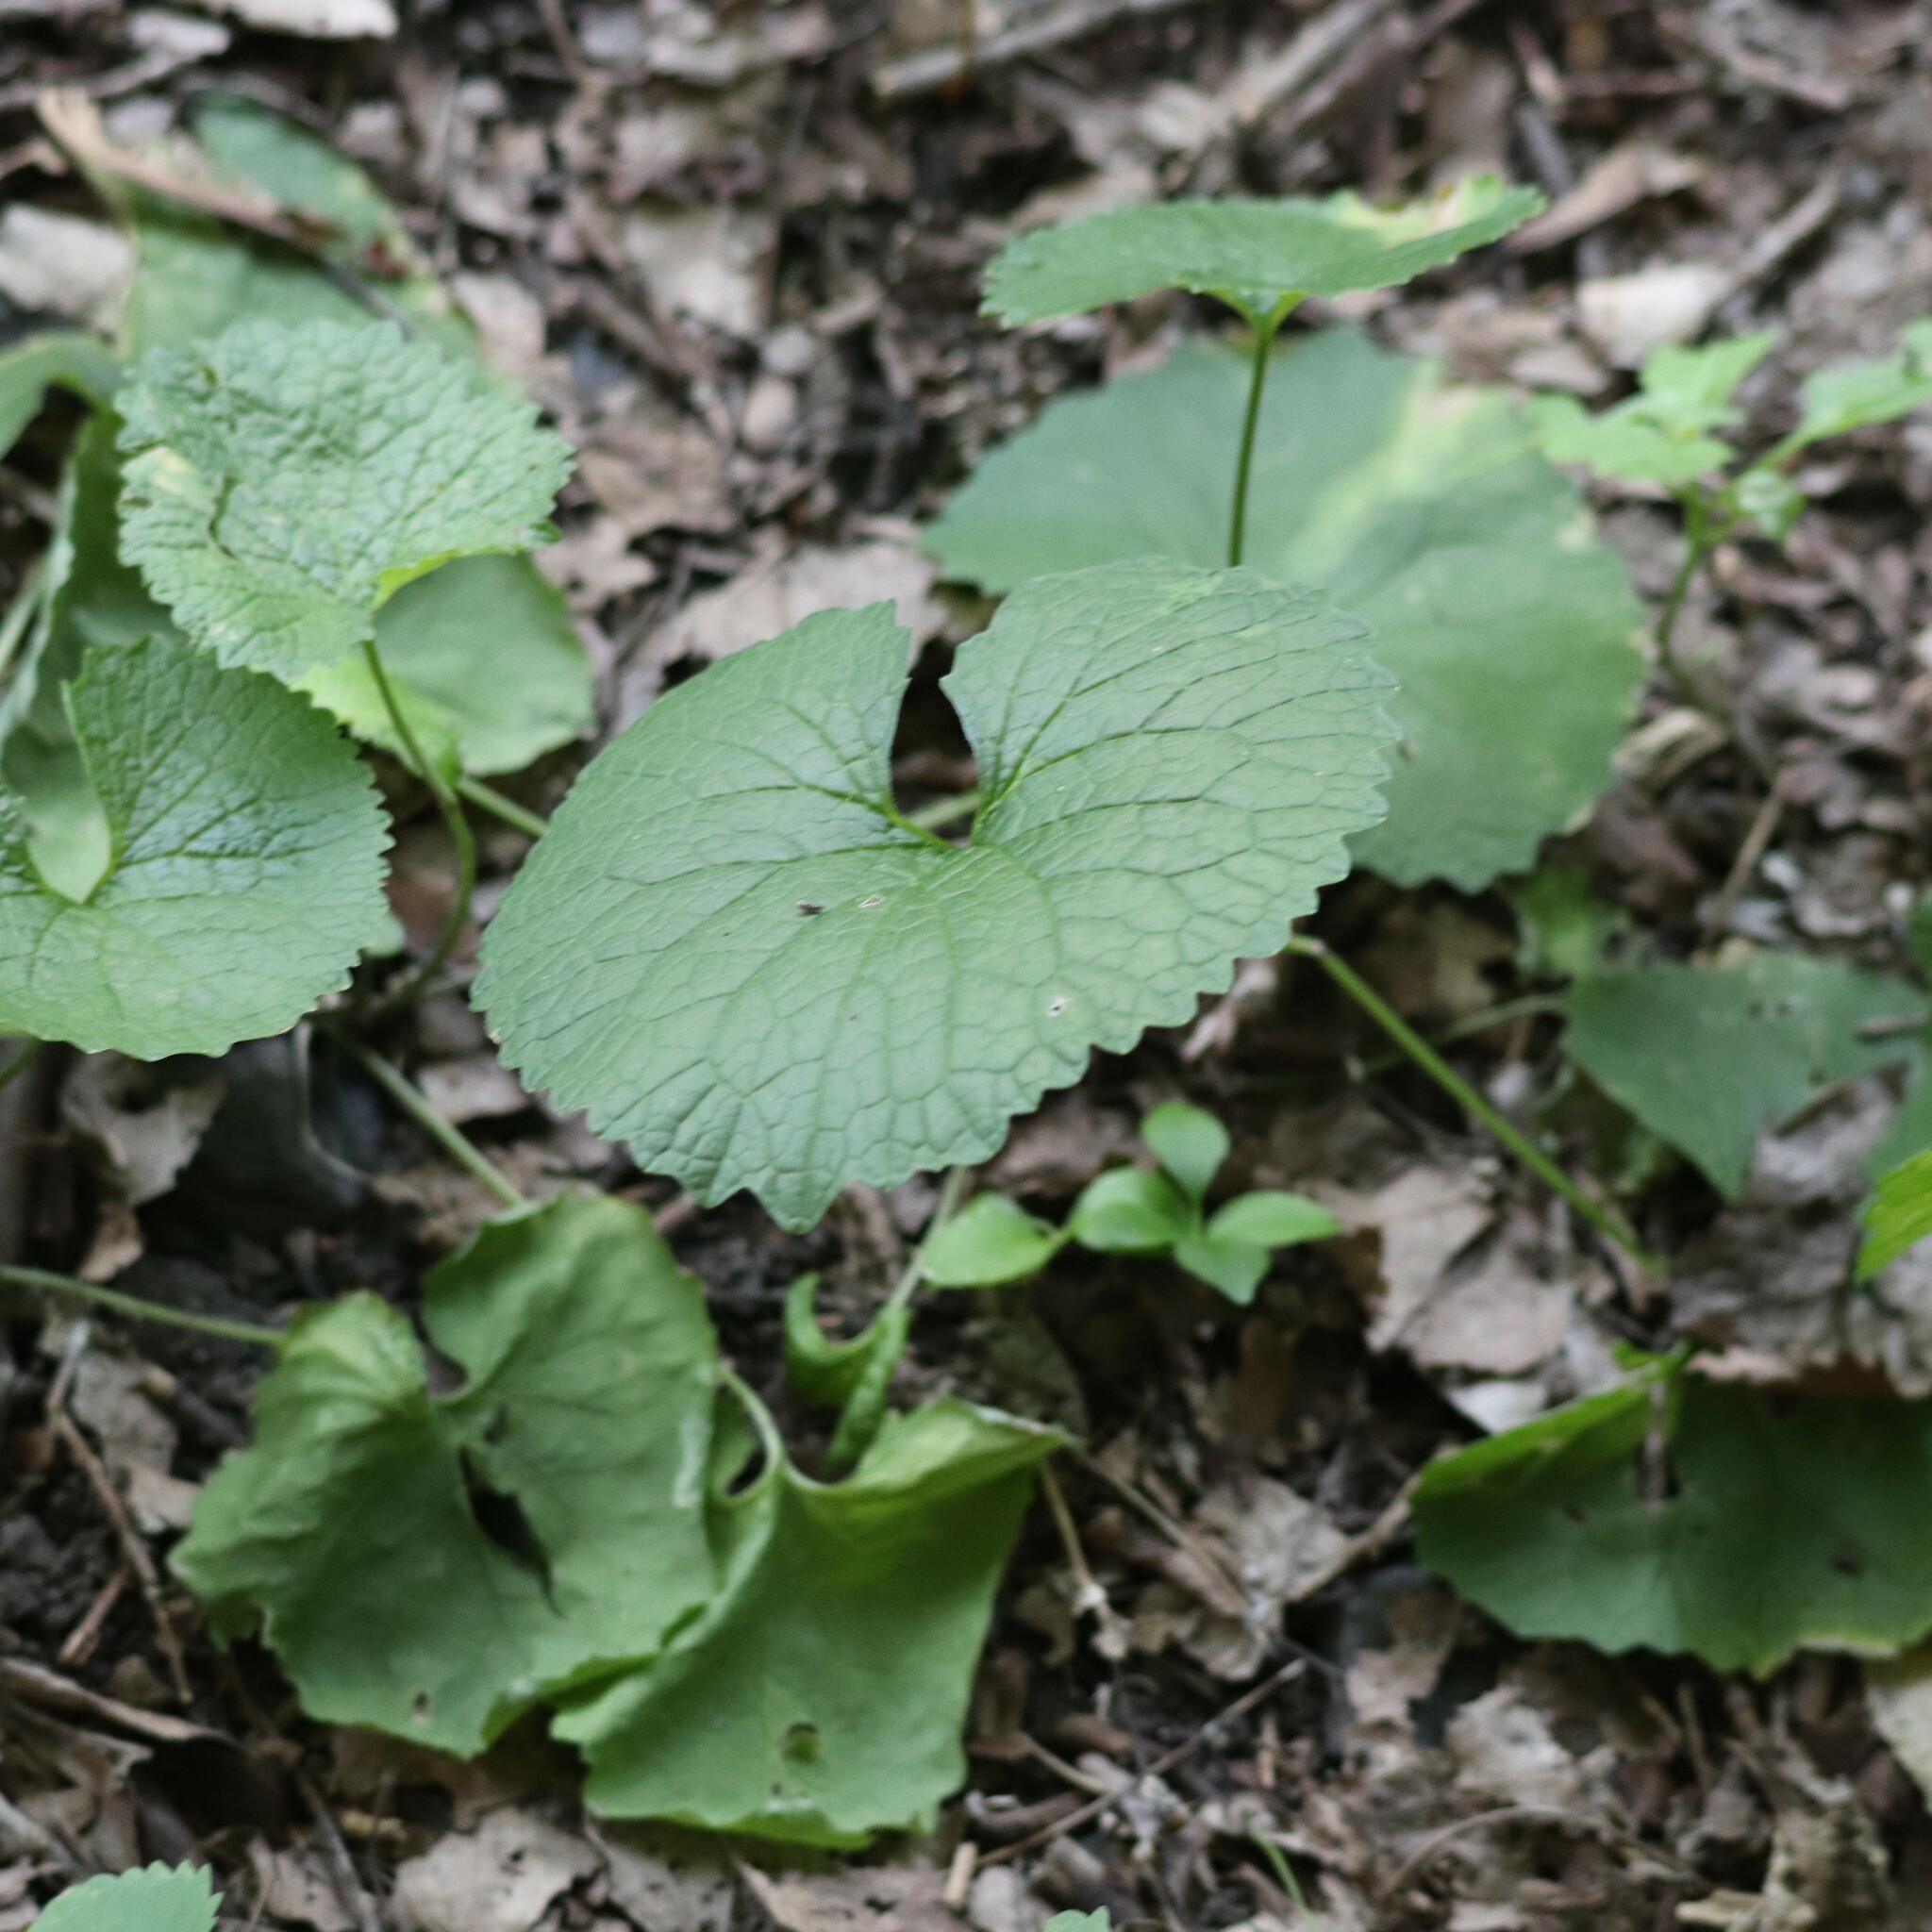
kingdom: Plantae
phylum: Tracheophyta
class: Magnoliopsida
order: Brassicales
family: Brassicaceae
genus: Alliaria
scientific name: Alliaria petiolata
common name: Garlic mustard
